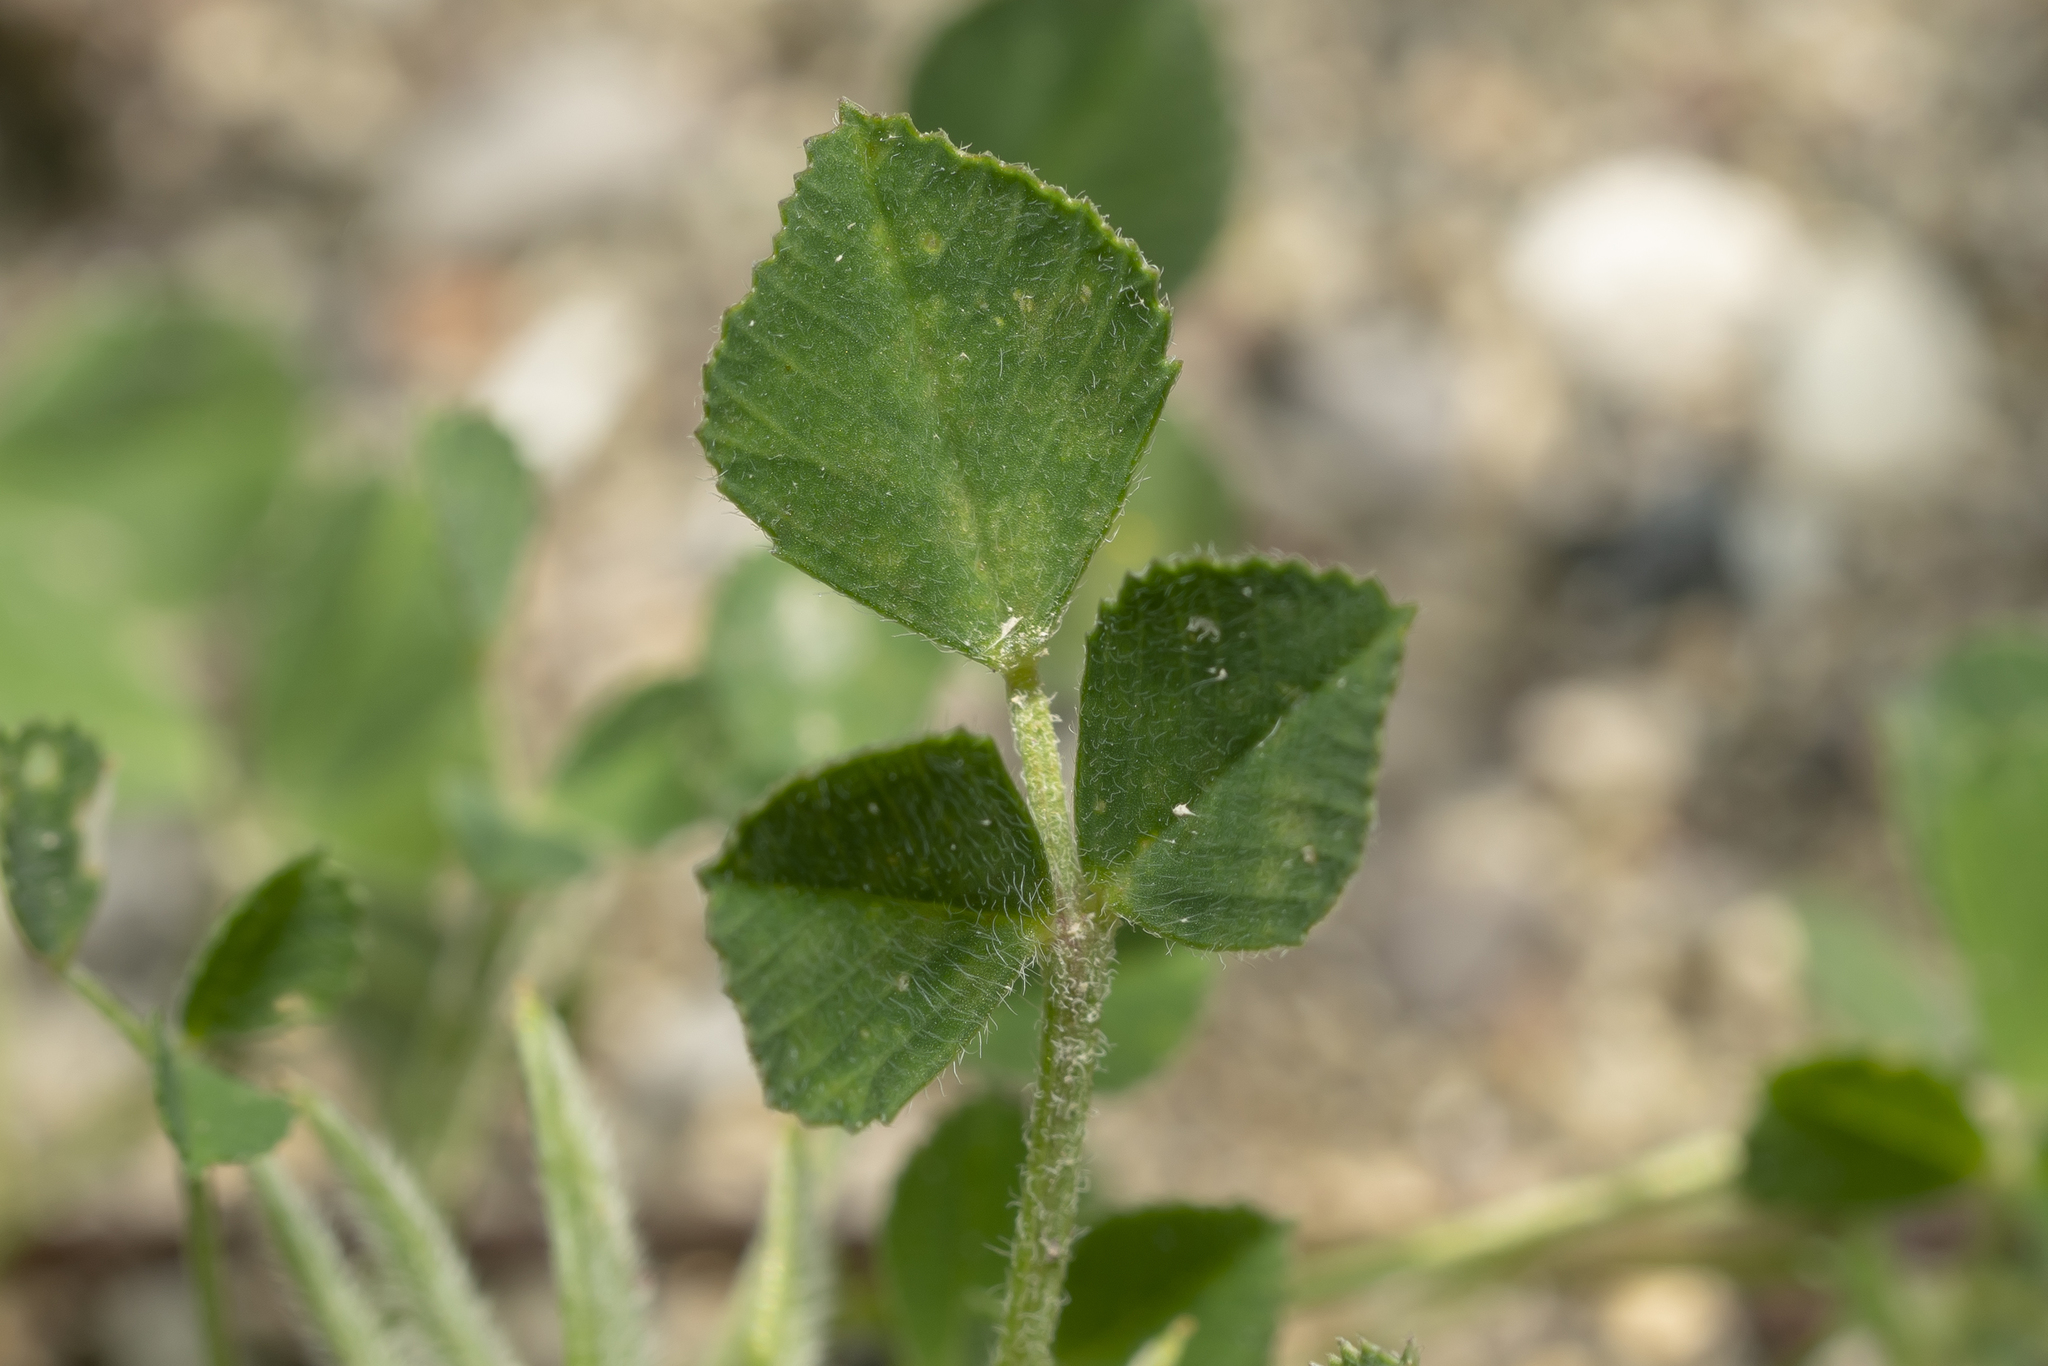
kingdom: Plantae
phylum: Tracheophyta
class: Magnoliopsida
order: Fabales
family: Fabaceae
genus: Medicago
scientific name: Medicago monspeliaca
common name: Hairy medick
